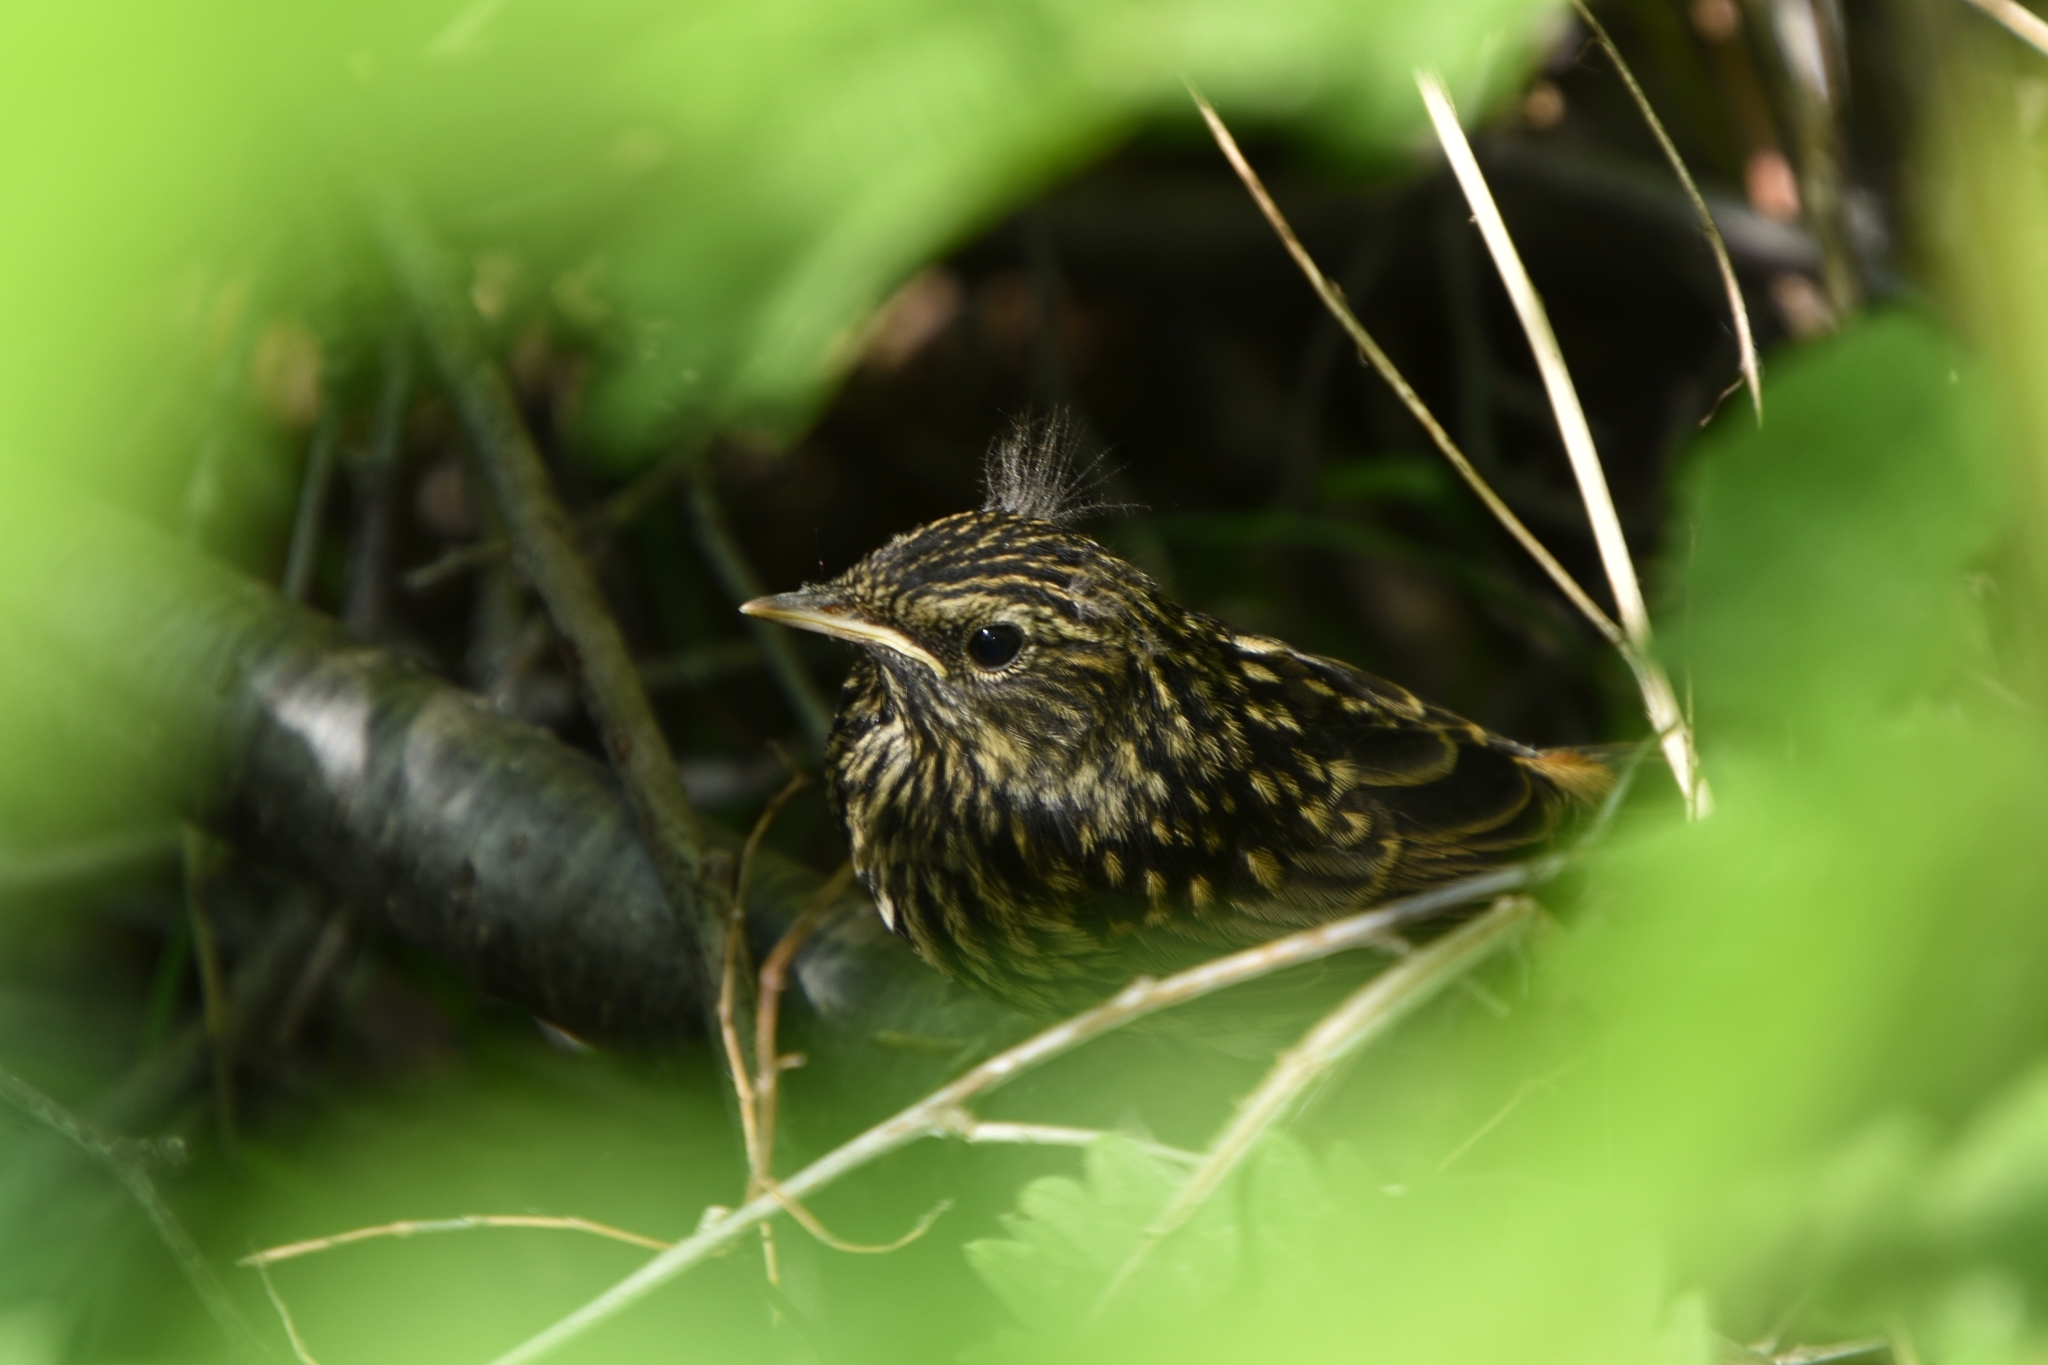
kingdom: Animalia
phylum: Chordata
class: Aves
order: Passeriformes
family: Muscicapidae
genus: Luscinia
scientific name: Luscinia svecica
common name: Bluethroat
